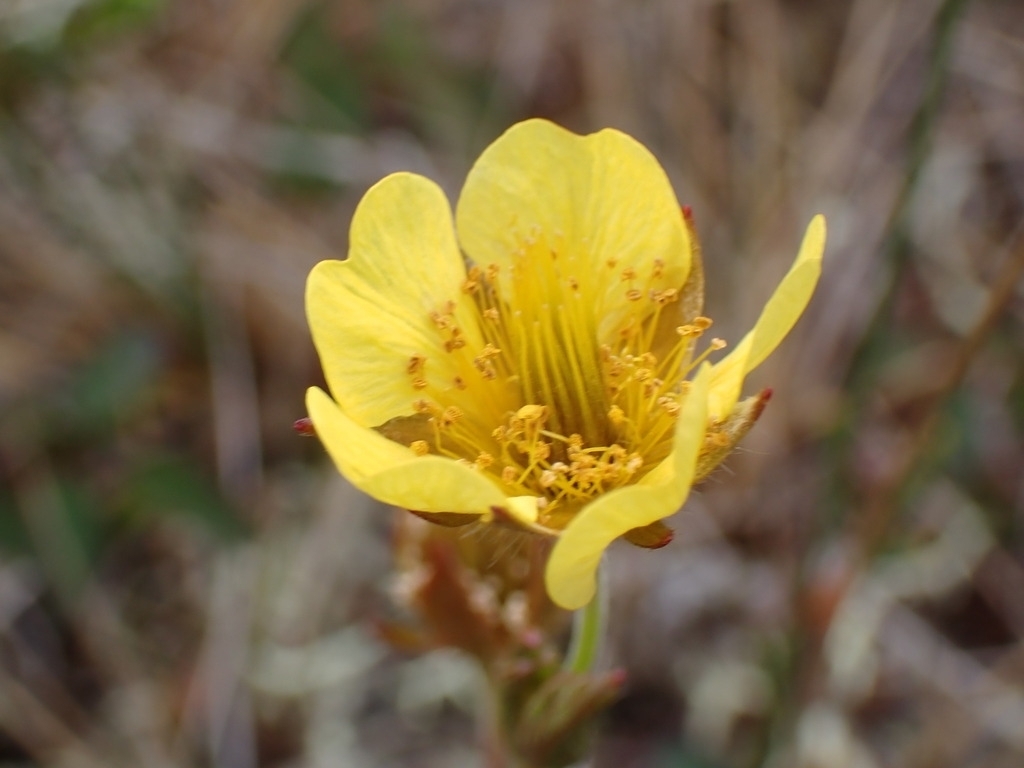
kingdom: Plantae
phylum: Tracheophyta
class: Magnoliopsida
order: Rosales
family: Rosaceae
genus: Geum
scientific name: Geum calthifolium
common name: Caltha-leaved avens
